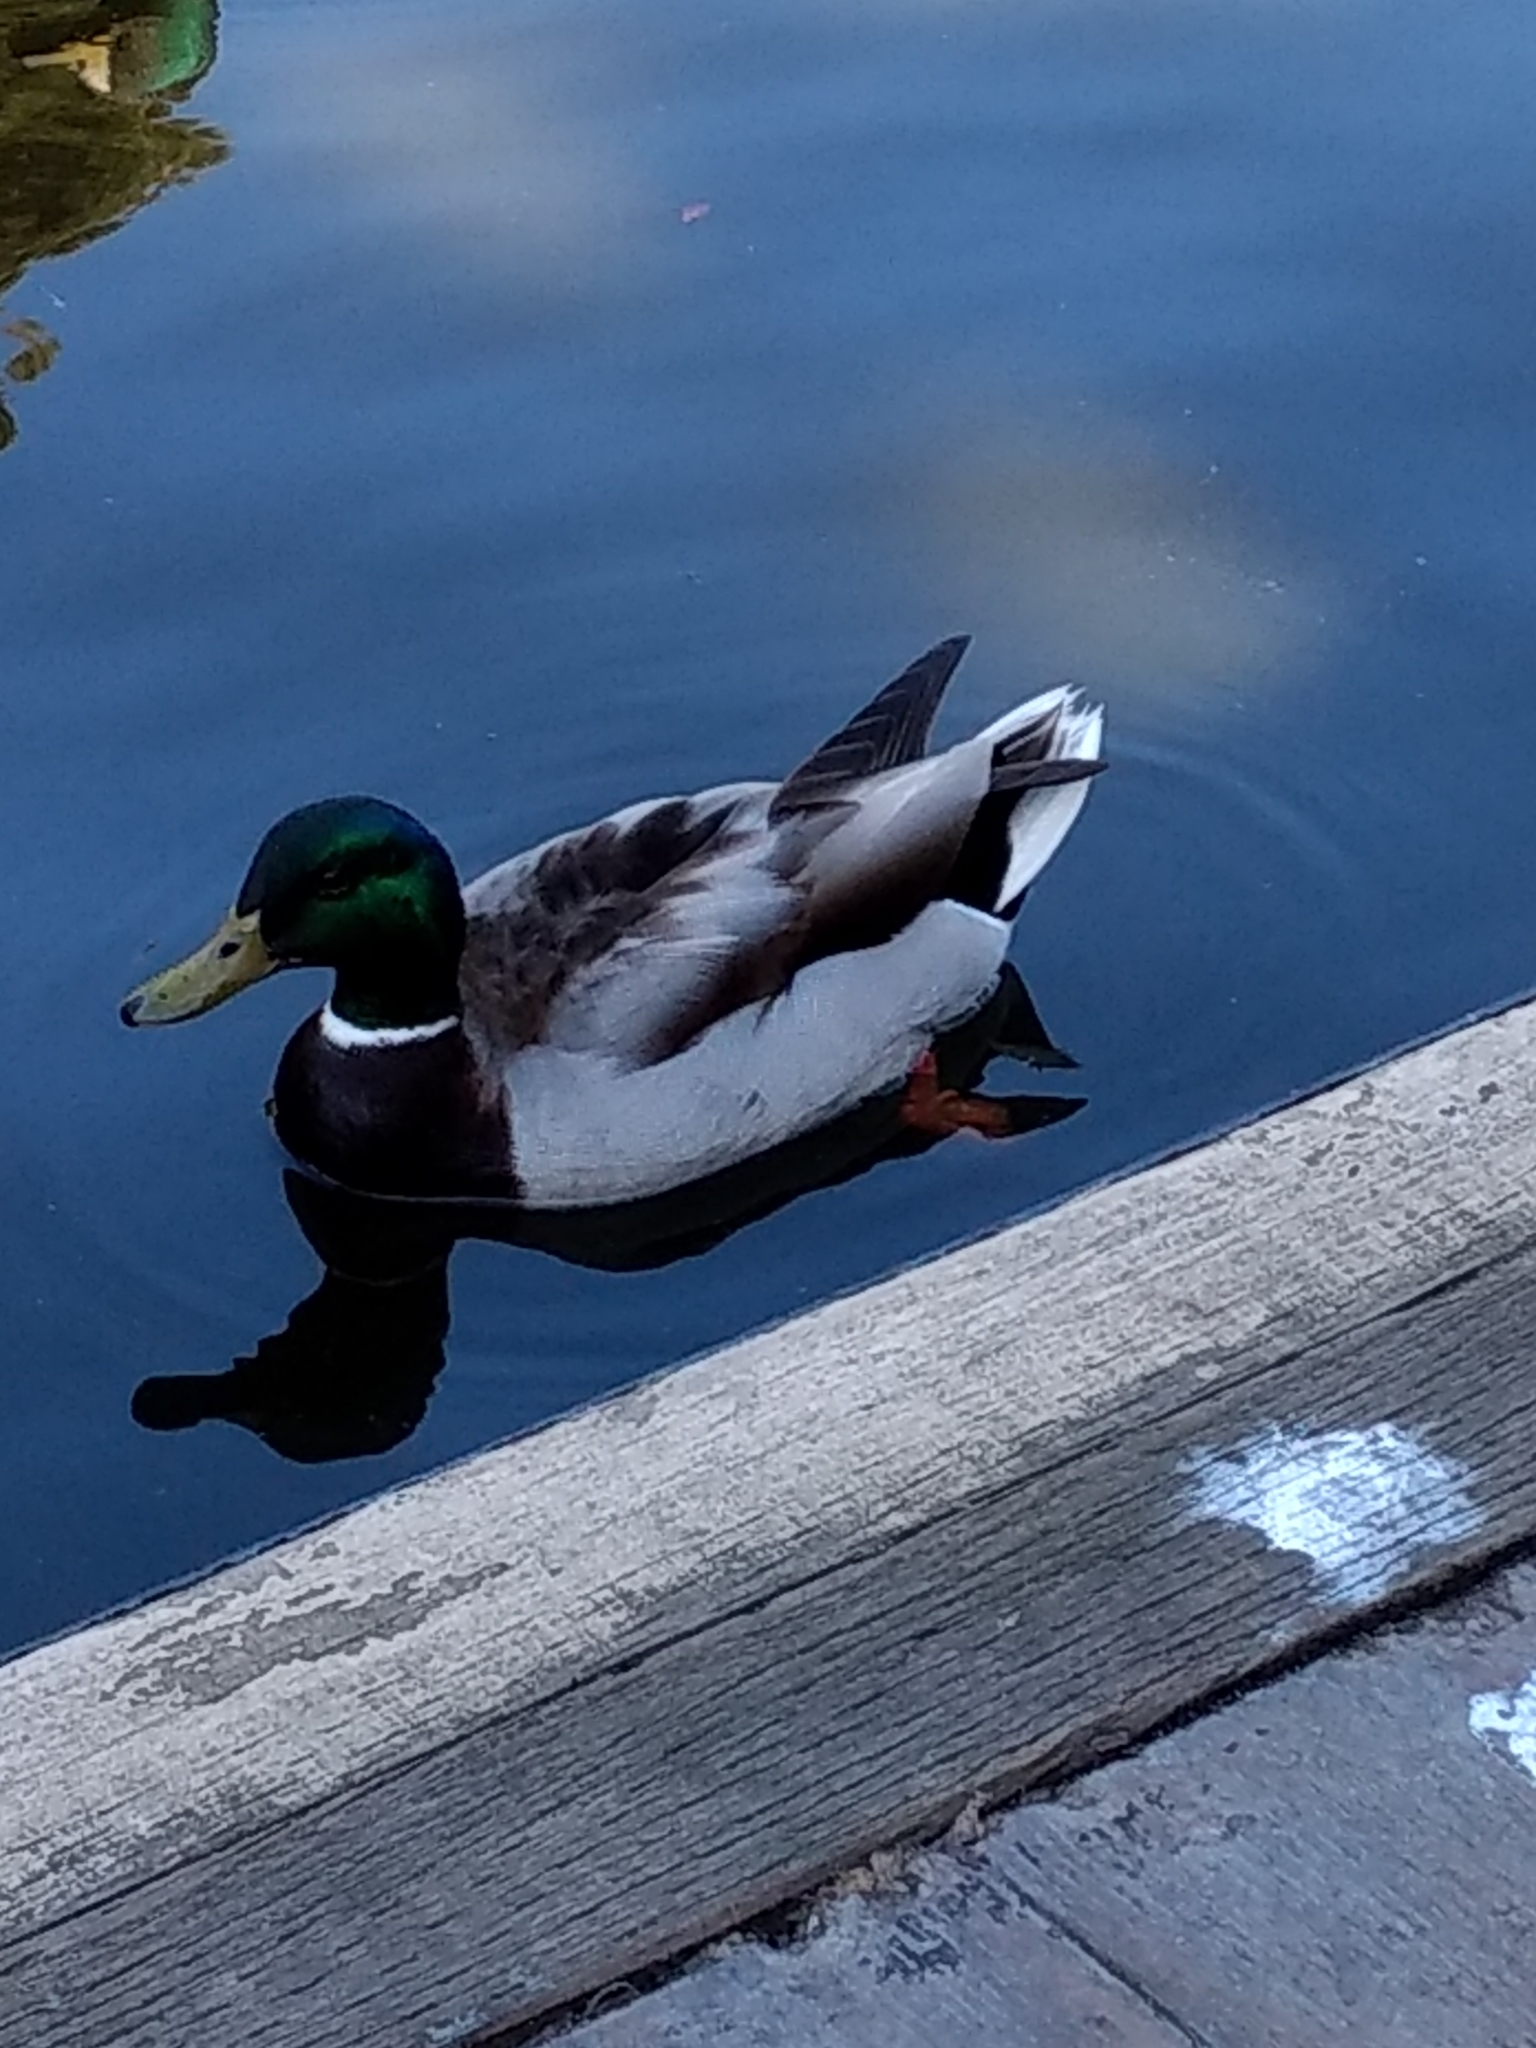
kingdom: Animalia
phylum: Chordata
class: Aves
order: Anseriformes
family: Anatidae
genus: Anas
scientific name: Anas platyrhynchos
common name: Mallard
